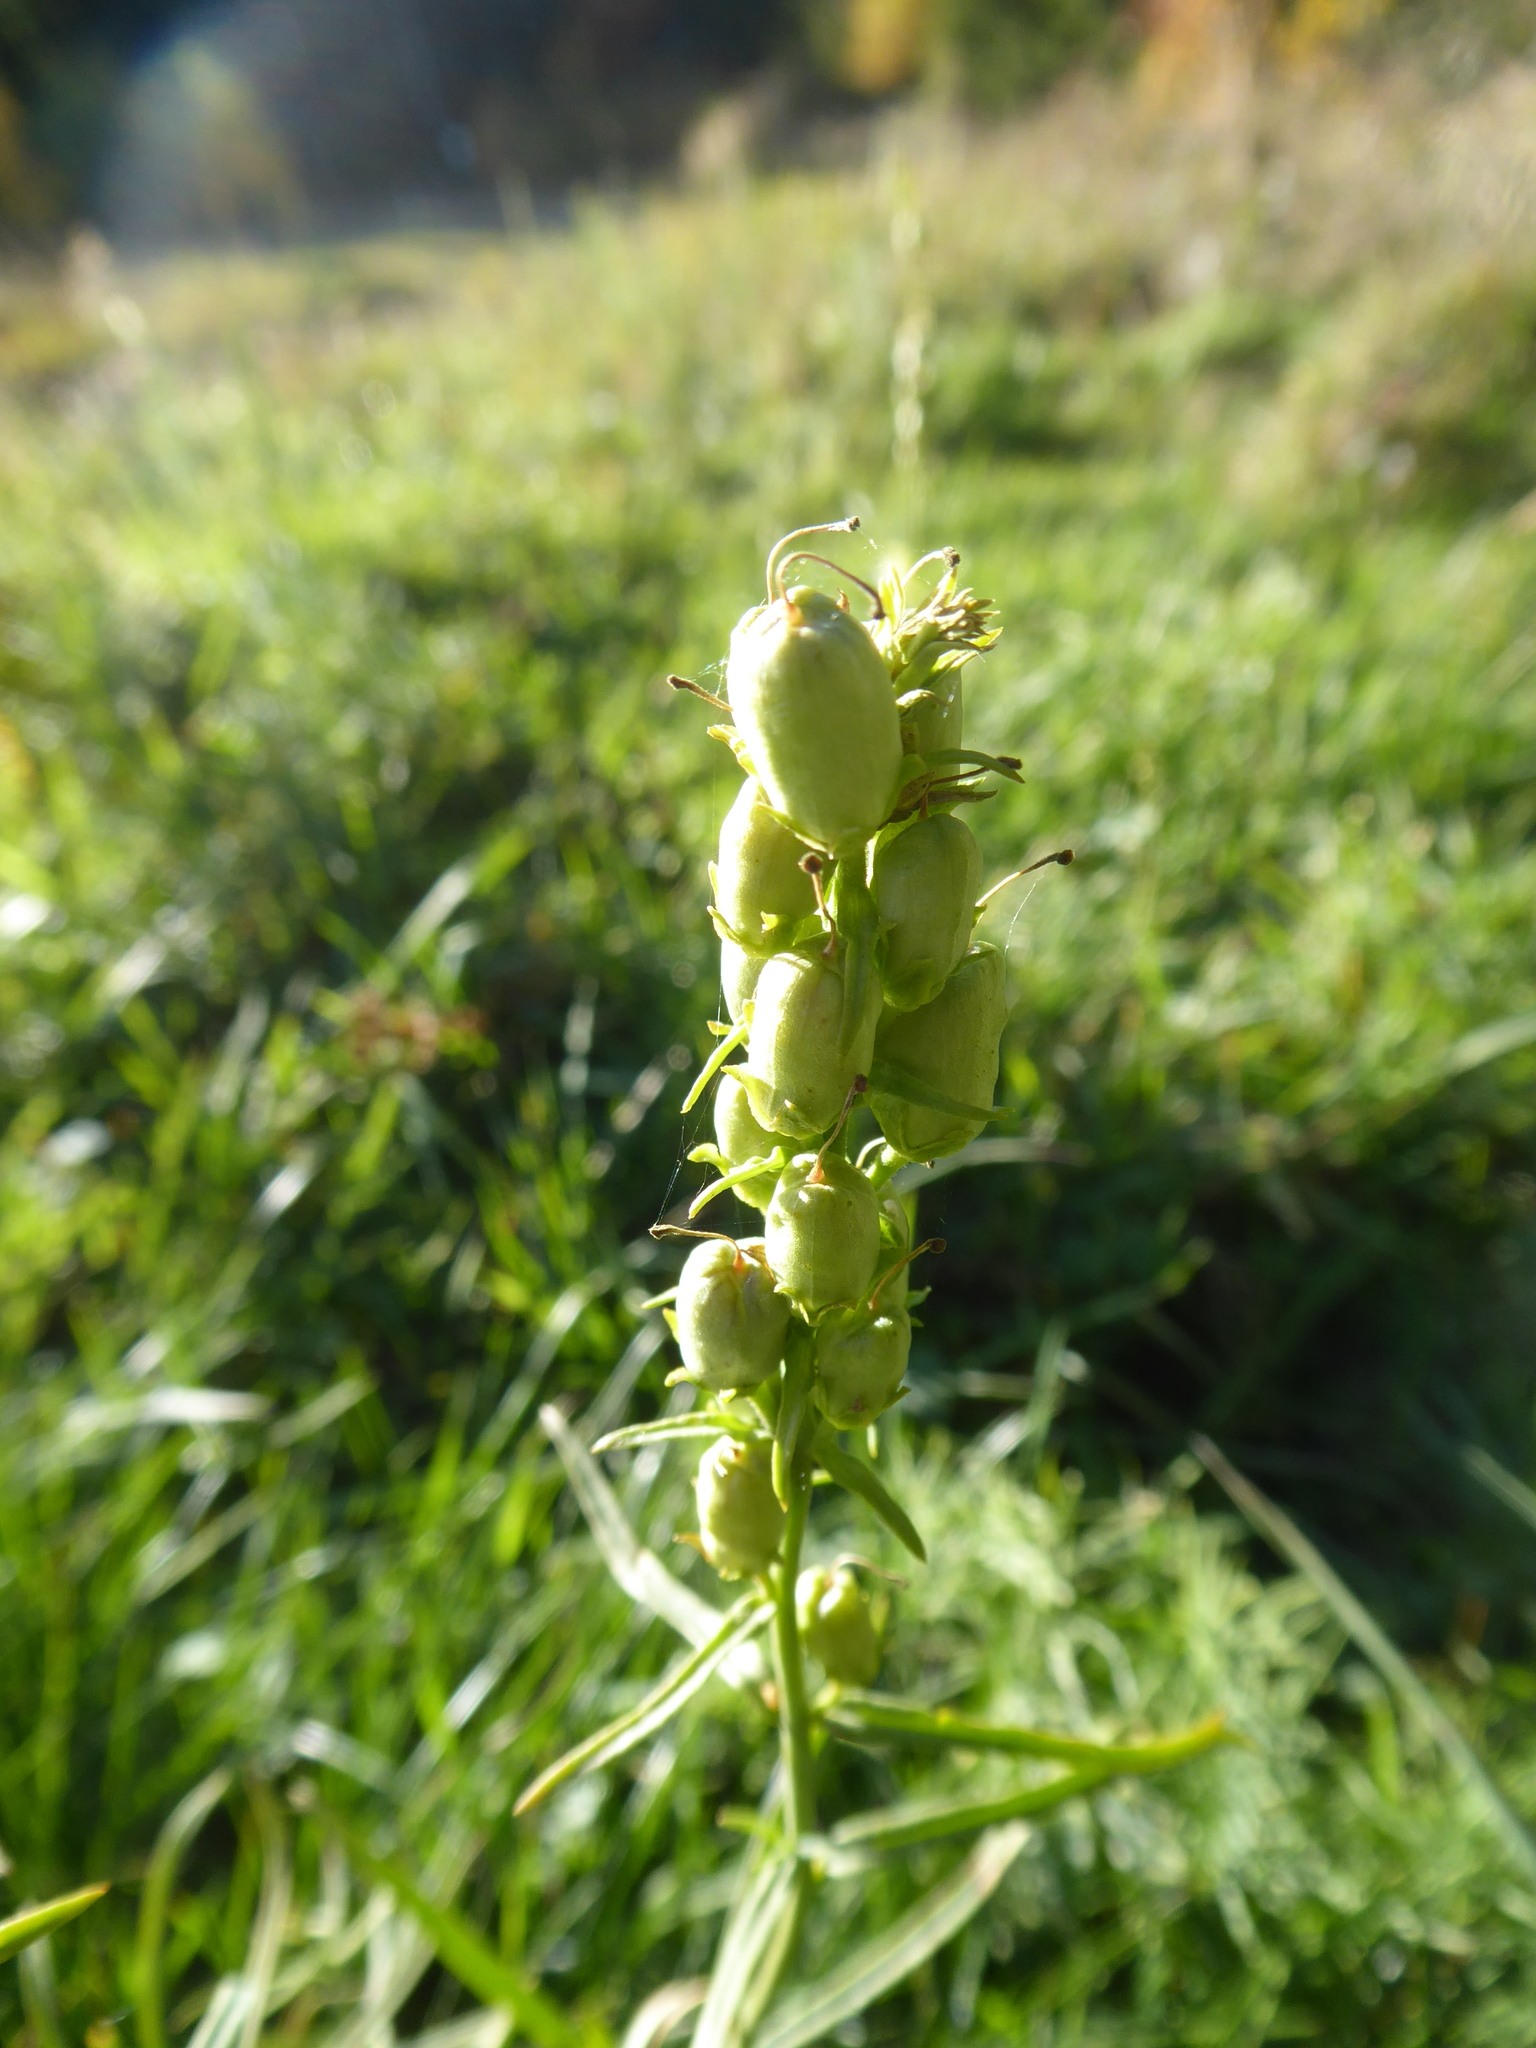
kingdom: Plantae
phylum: Tracheophyta
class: Magnoliopsida
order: Lamiales
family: Plantaginaceae
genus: Linaria
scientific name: Linaria vulgaris
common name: Butter and eggs
